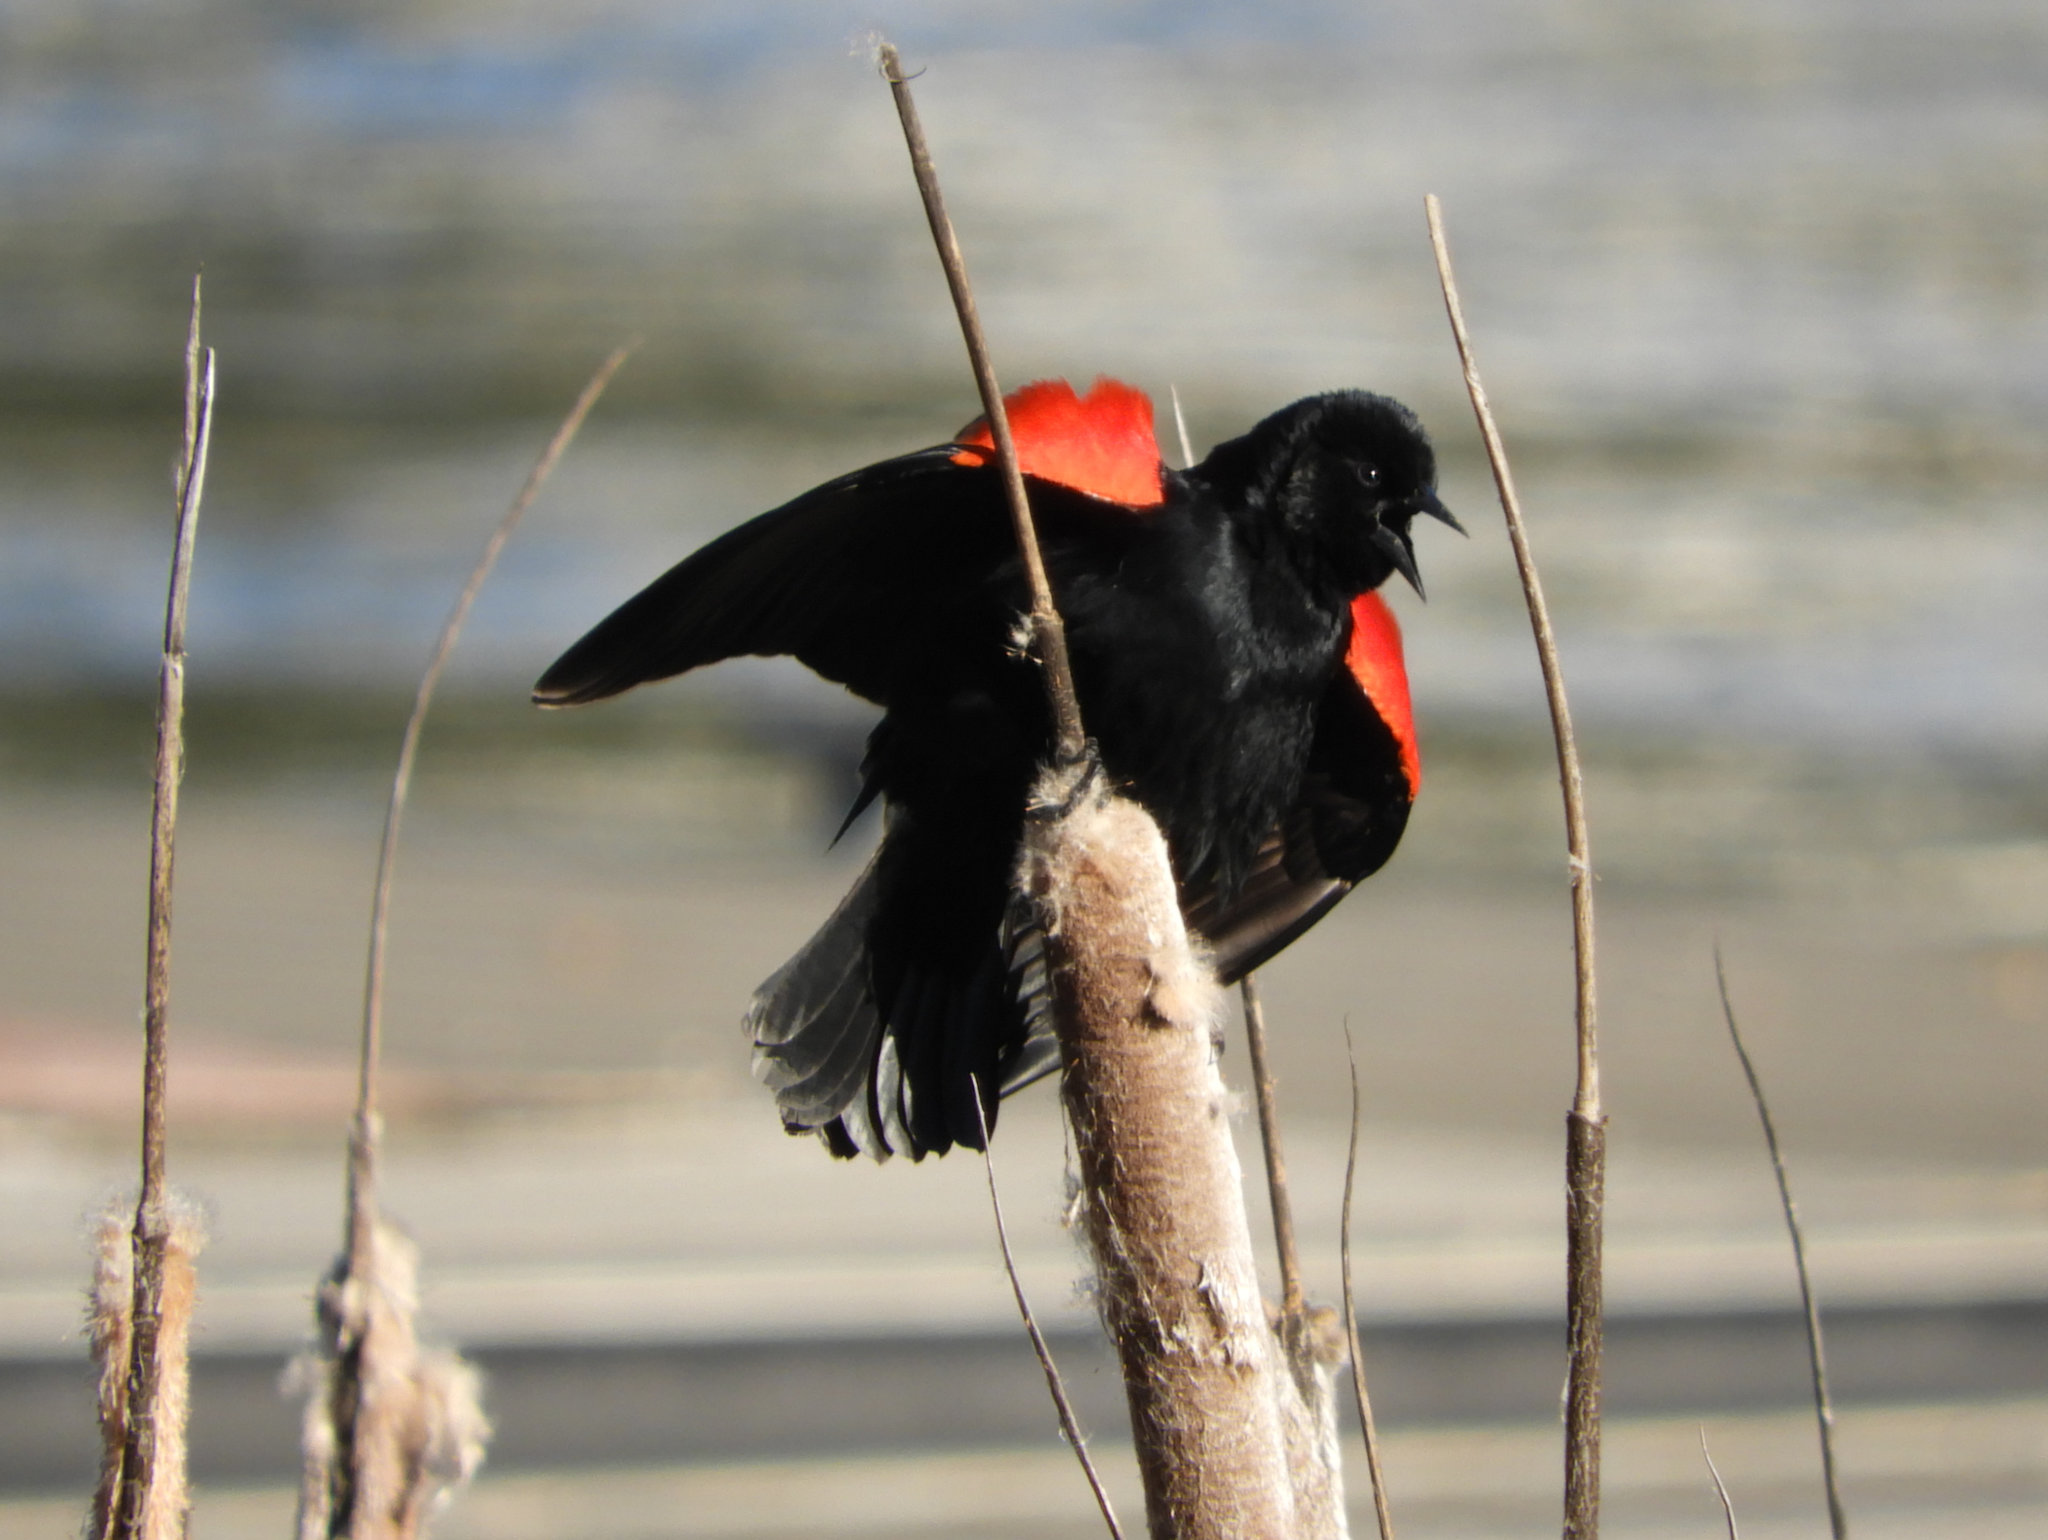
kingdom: Animalia
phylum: Chordata
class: Aves
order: Passeriformes
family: Icteridae
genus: Agelaius
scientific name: Agelaius phoeniceus
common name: Red-winged blackbird
